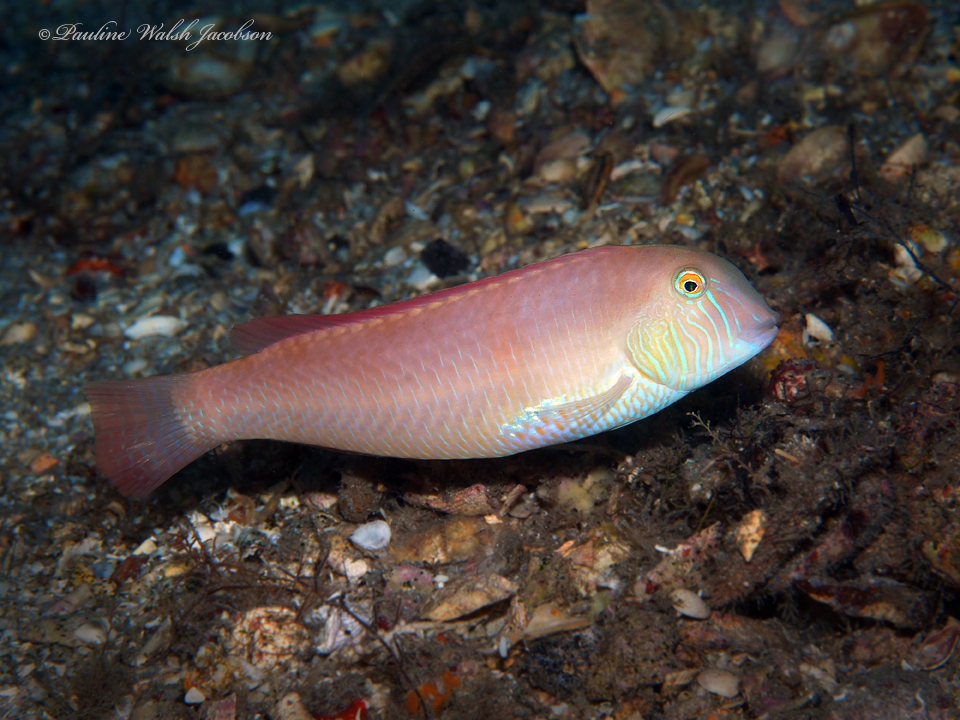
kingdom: Animalia
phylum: Chordata
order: Perciformes
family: Labridae
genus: Xyrichtys
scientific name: Xyrichtys novacula
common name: Pearly razorfish
